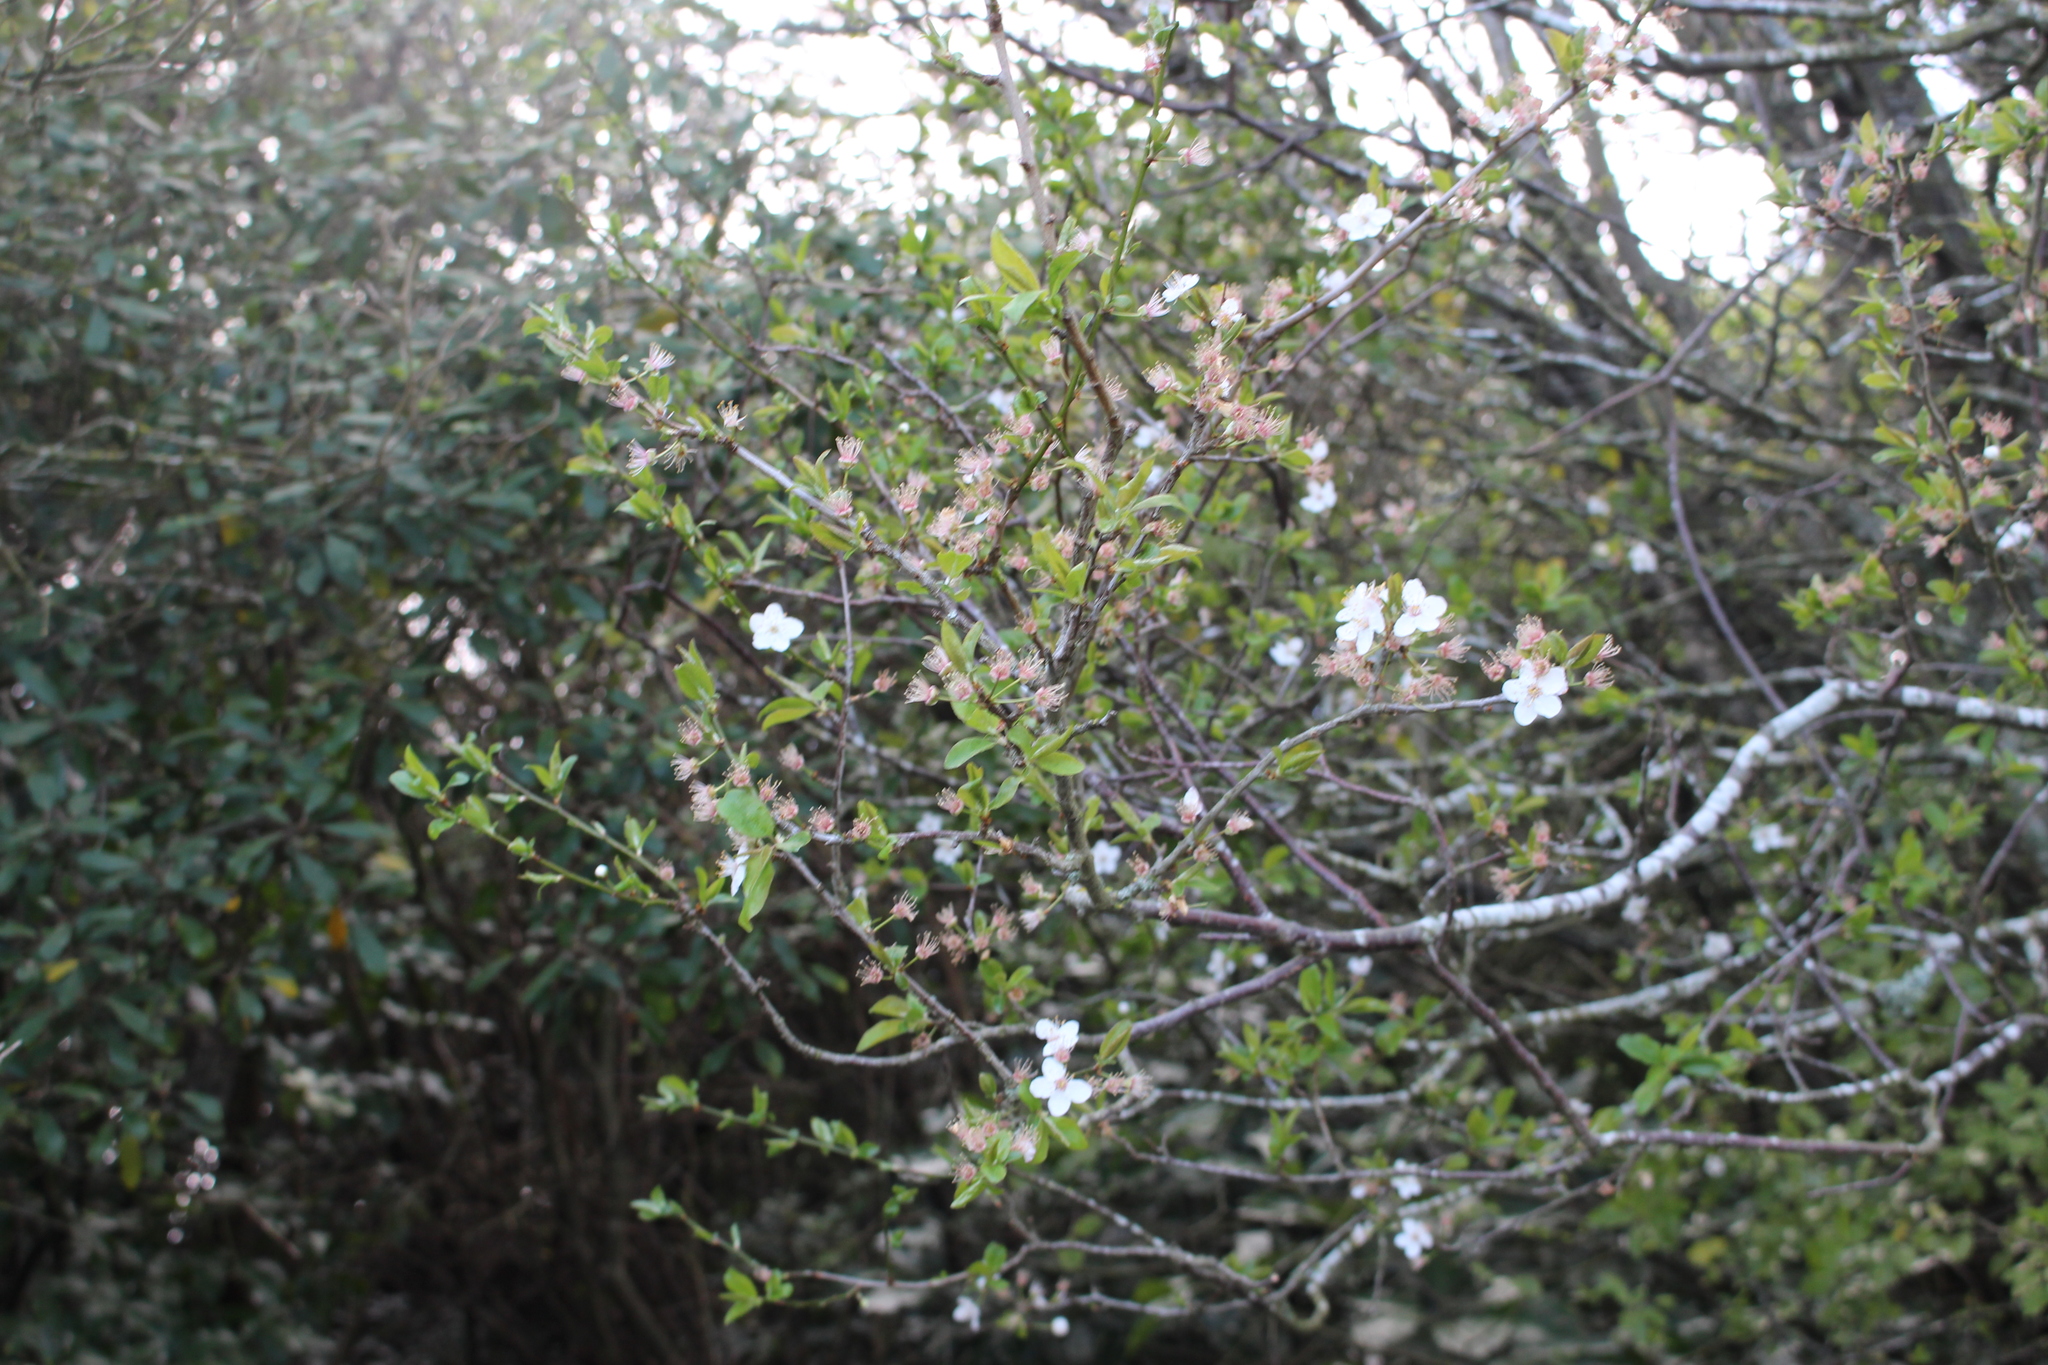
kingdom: Plantae
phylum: Tracheophyta
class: Magnoliopsida
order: Rosales
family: Rosaceae
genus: Prunus
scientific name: Prunus cerasifera
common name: Cherry plum
